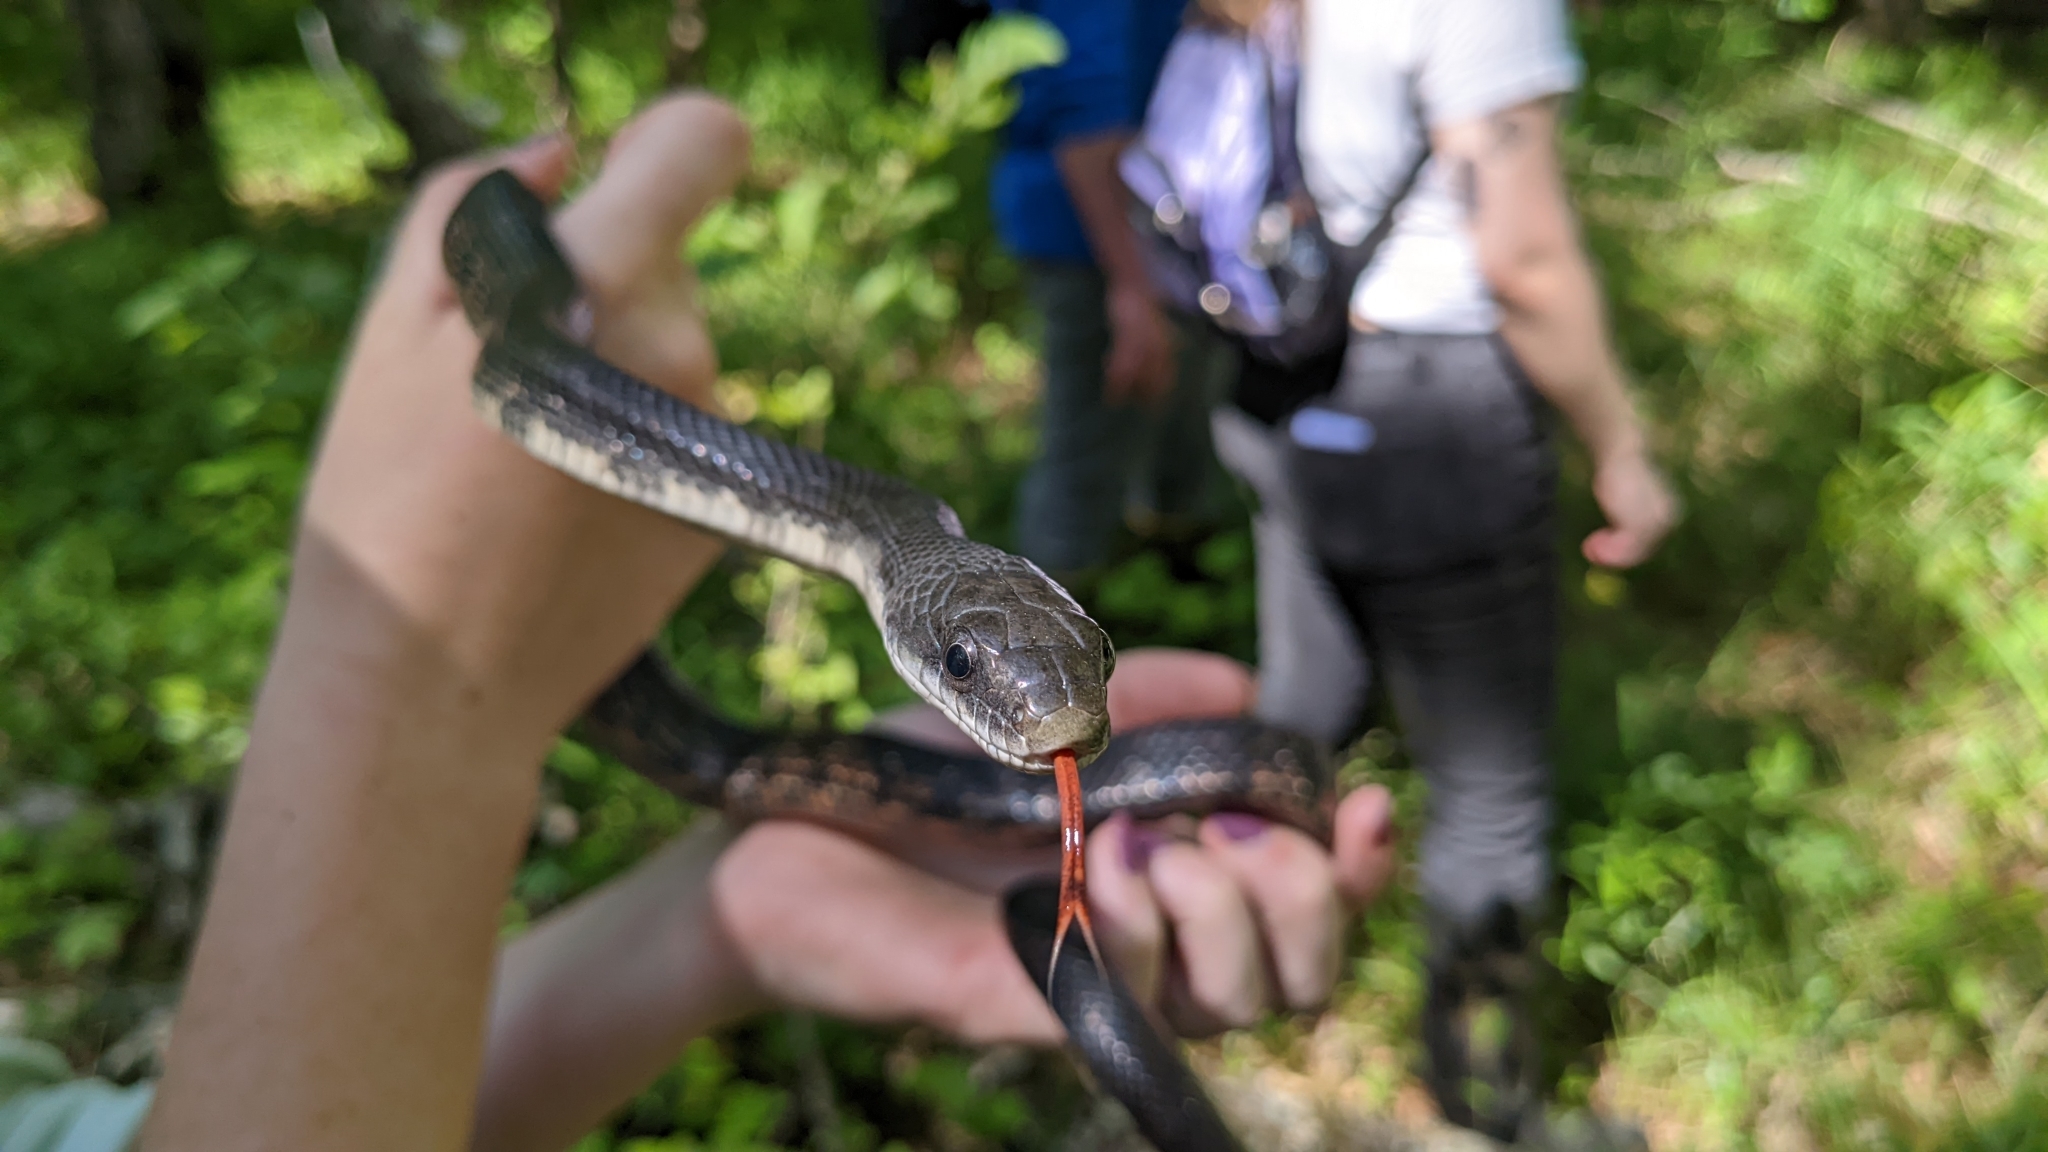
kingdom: Animalia
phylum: Chordata
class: Squamata
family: Colubridae
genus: Pantherophis
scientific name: Pantherophis obsoletus
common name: Black rat snake
